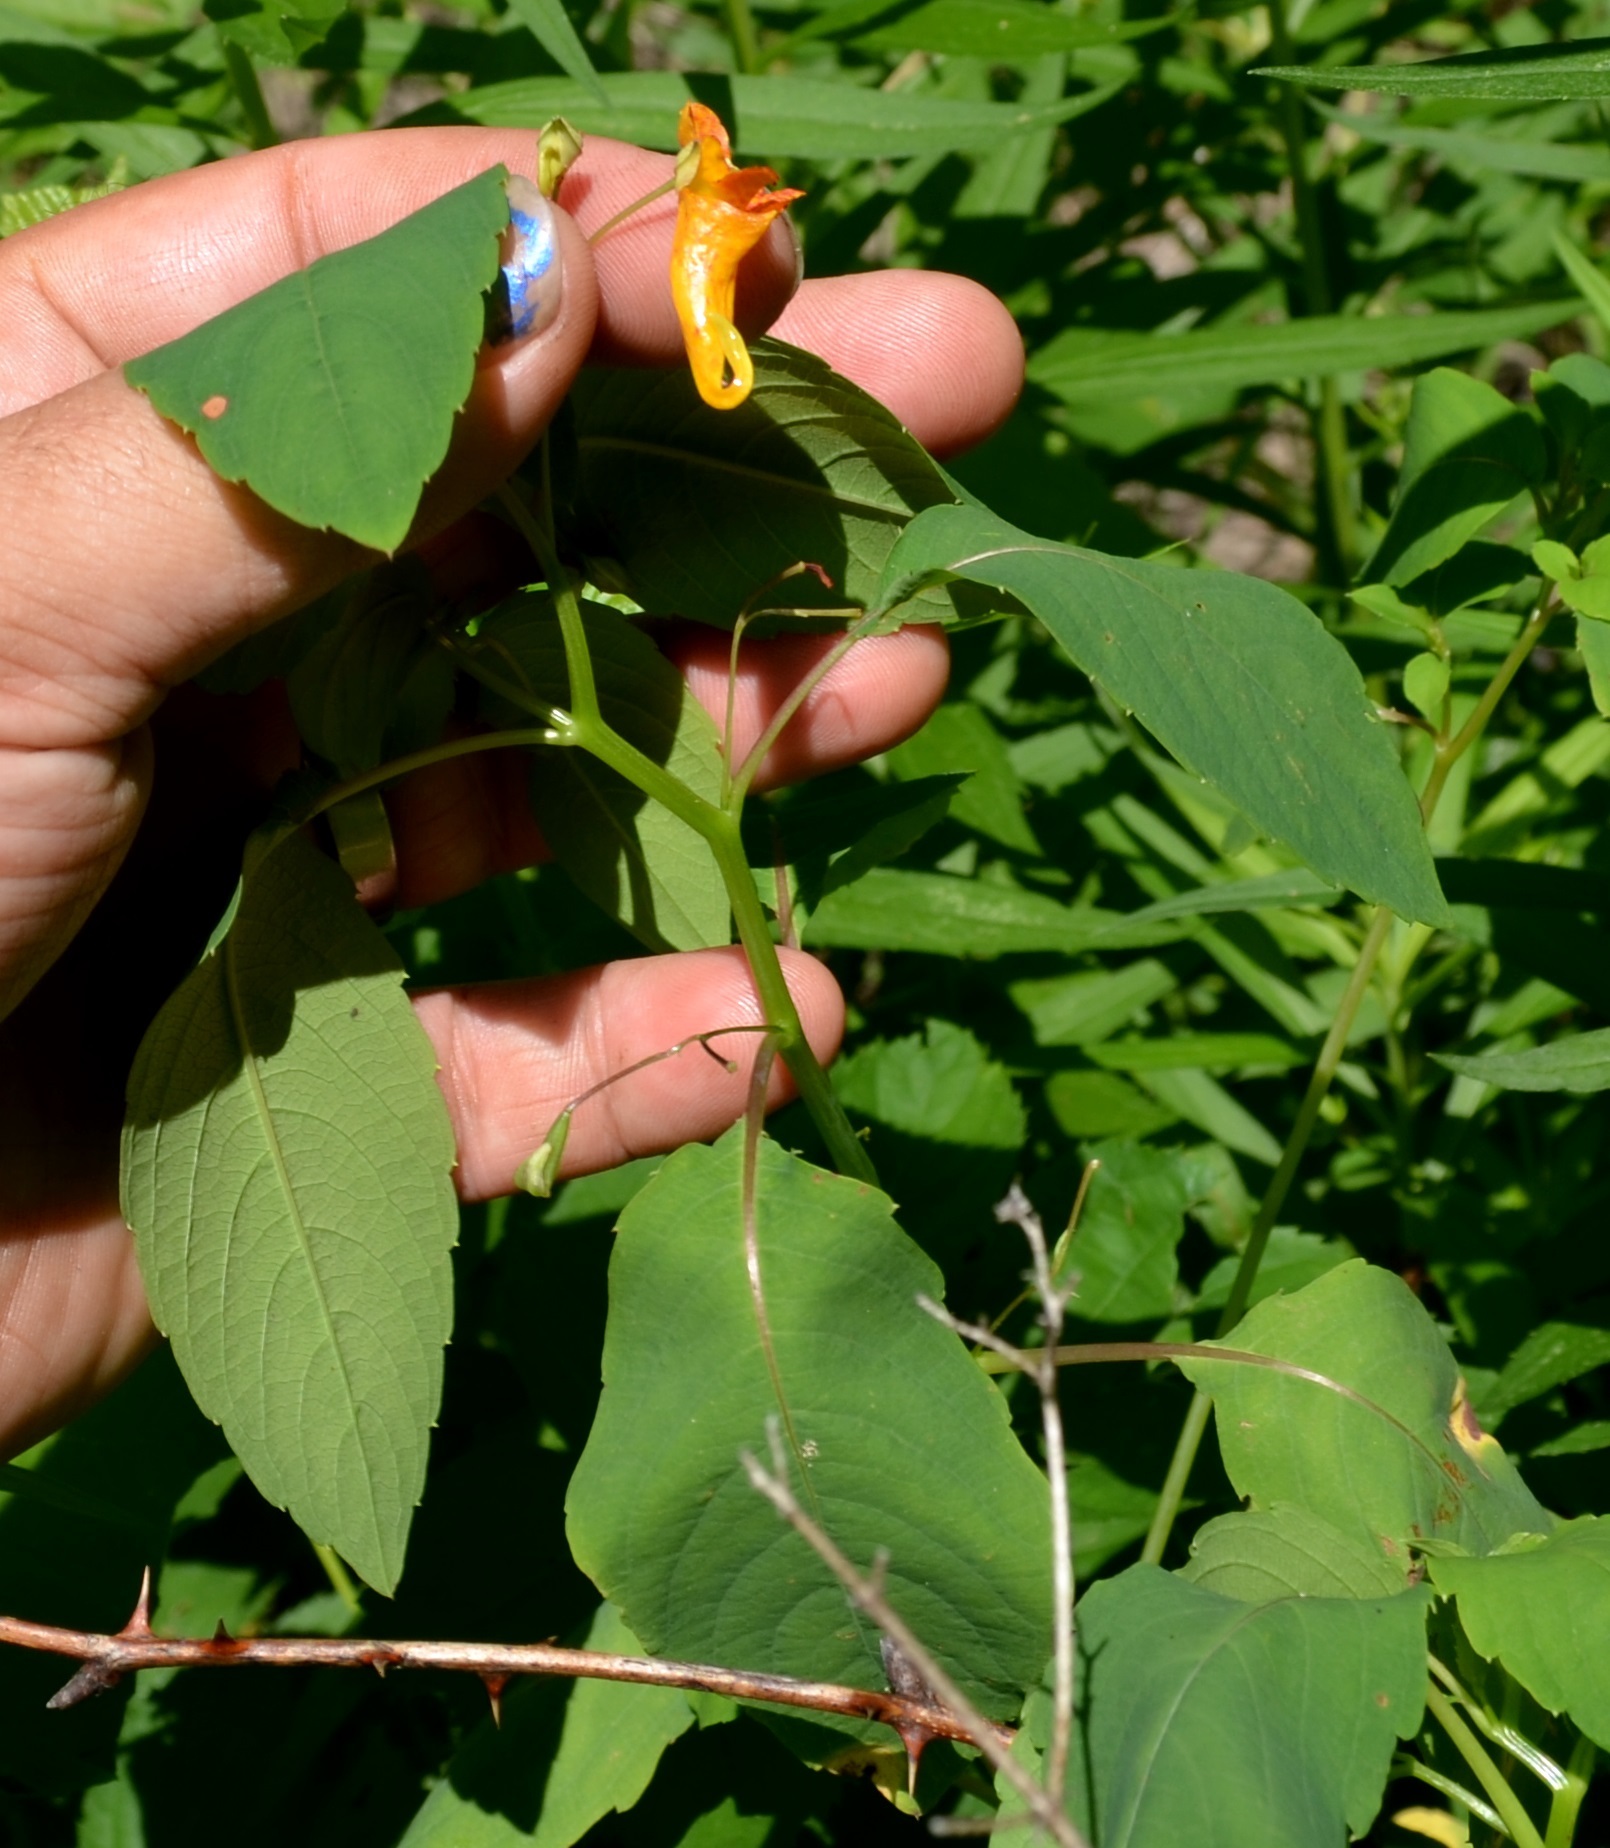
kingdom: Plantae
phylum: Tracheophyta
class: Magnoliopsida
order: Ericales
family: Balsaminaceae
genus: Impatiens
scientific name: Impatiens capensis
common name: Orange balsam
